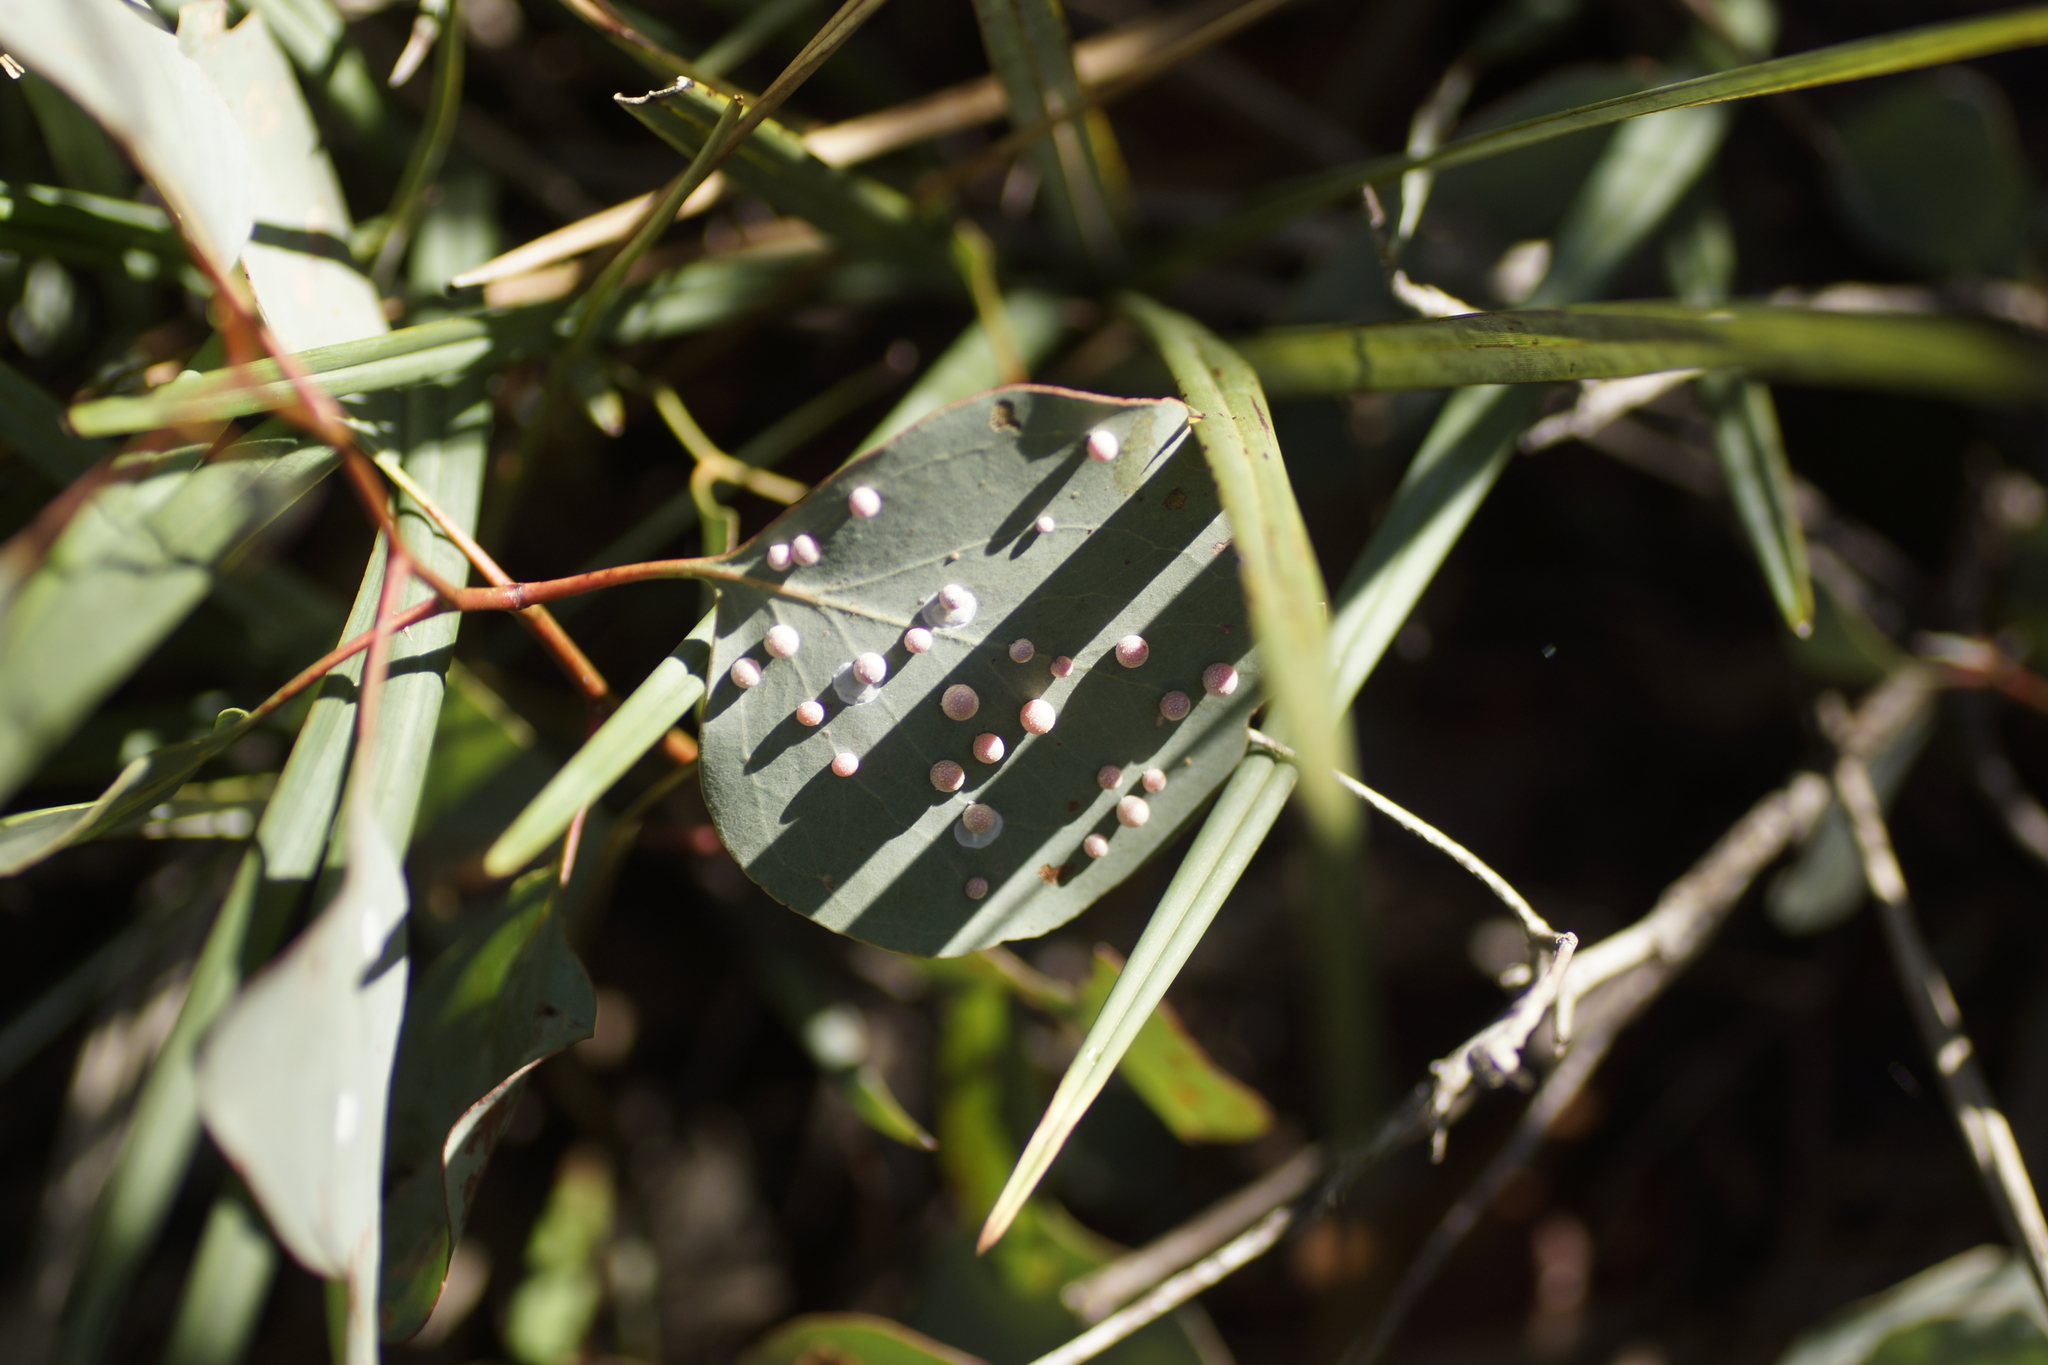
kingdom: Animalia
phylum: Arthropoda
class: Insecta
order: Hemiptera
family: Aphalaridae
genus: Glycaspis
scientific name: Glycaspis brimblecombei
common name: Red gum lerp psyllid
